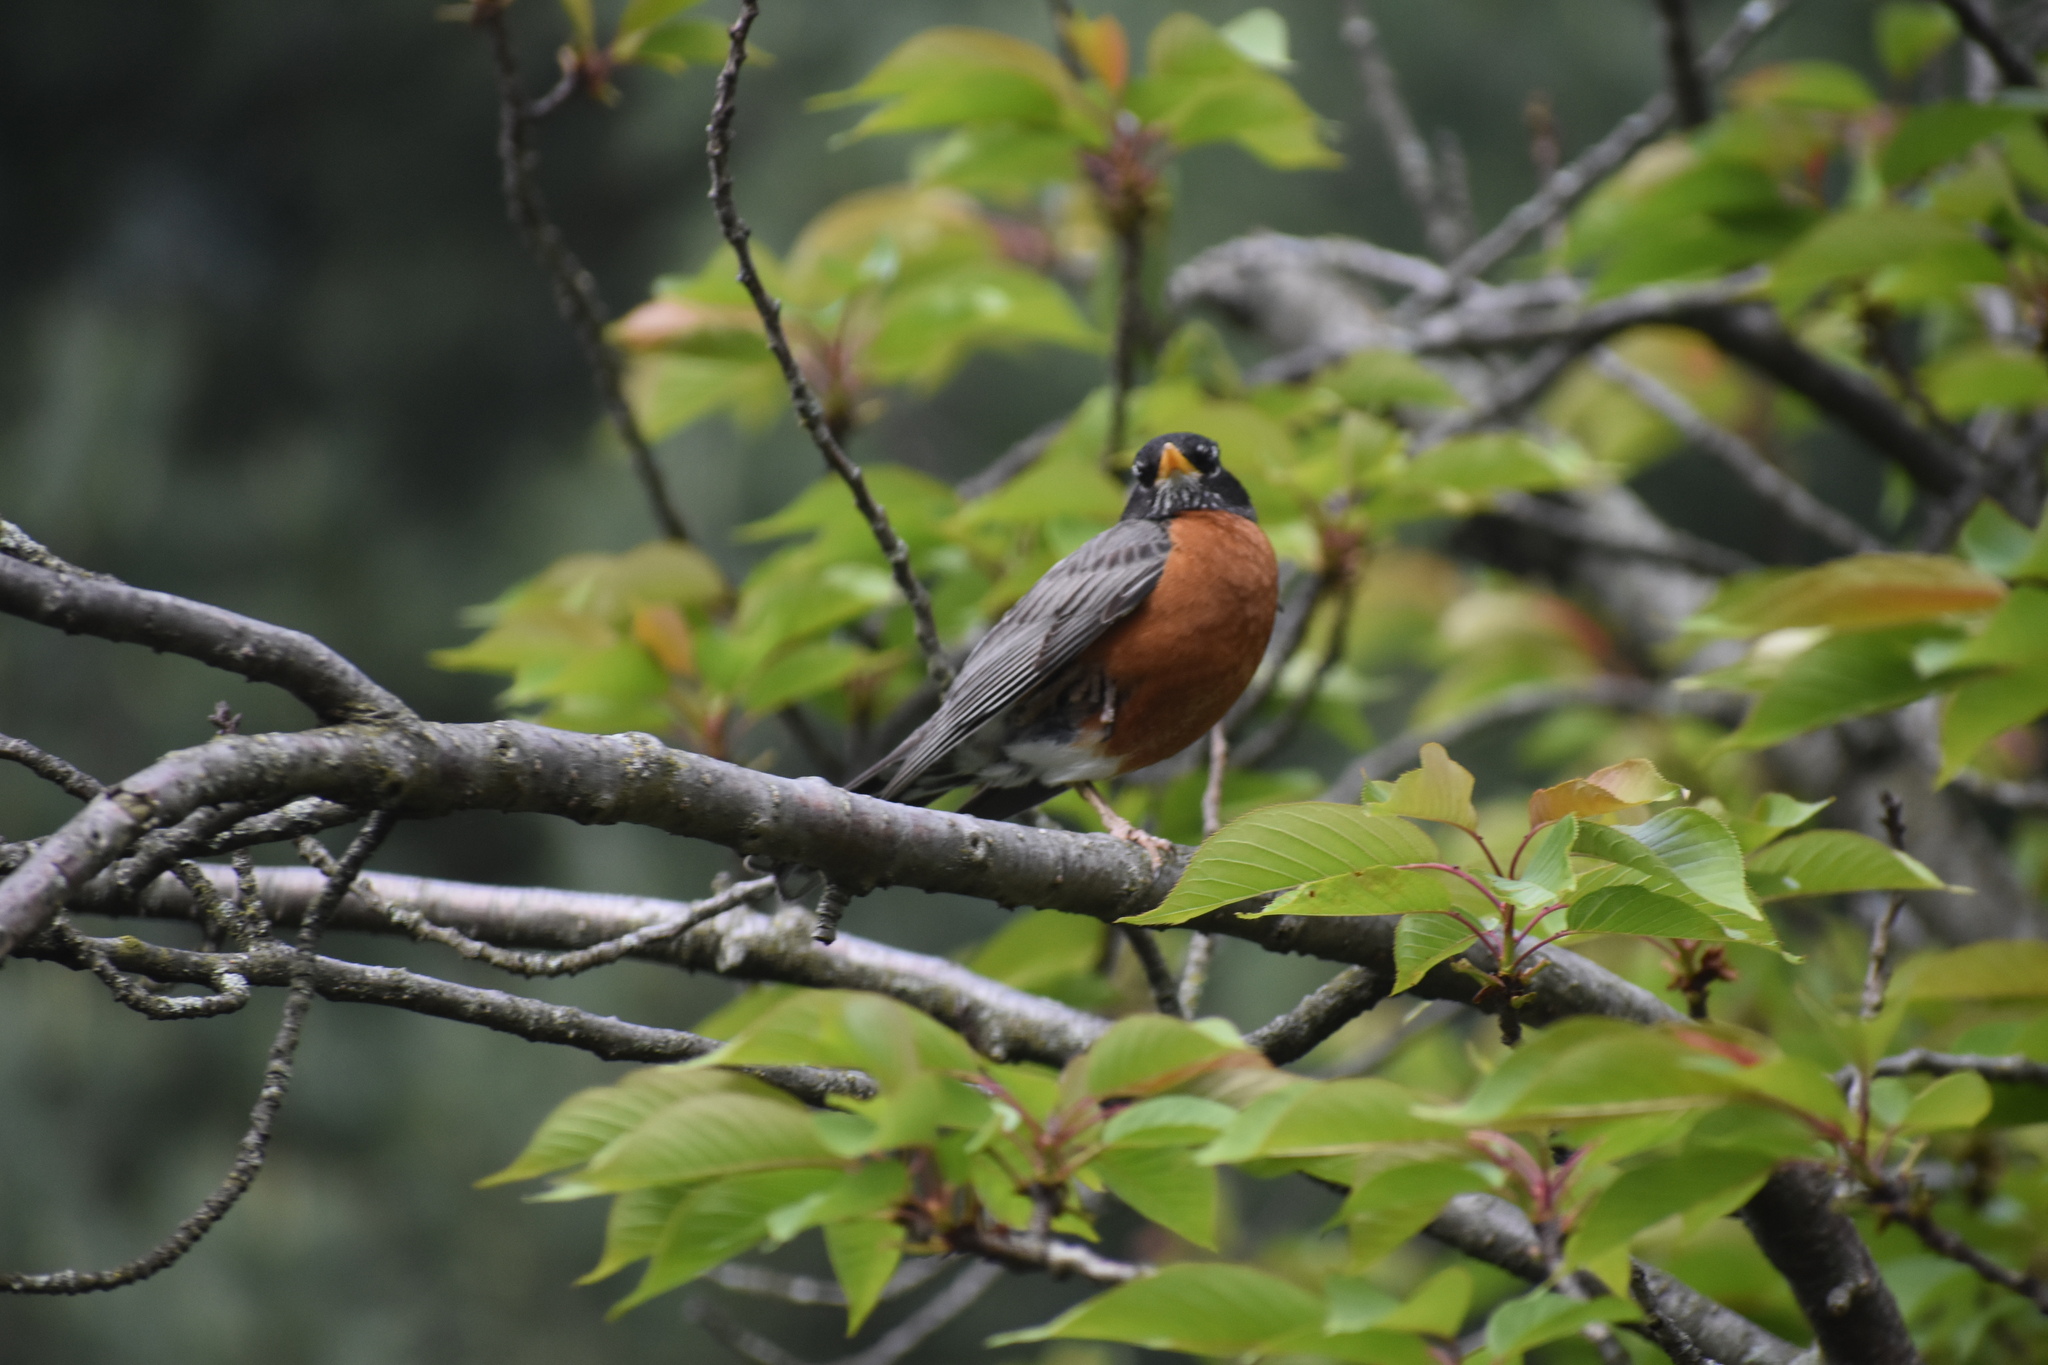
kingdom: Animalia
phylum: Chordata
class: Aves
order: Passeriformes
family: Turdidae
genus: Turdus
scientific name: Turdus migratorius
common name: American robin
